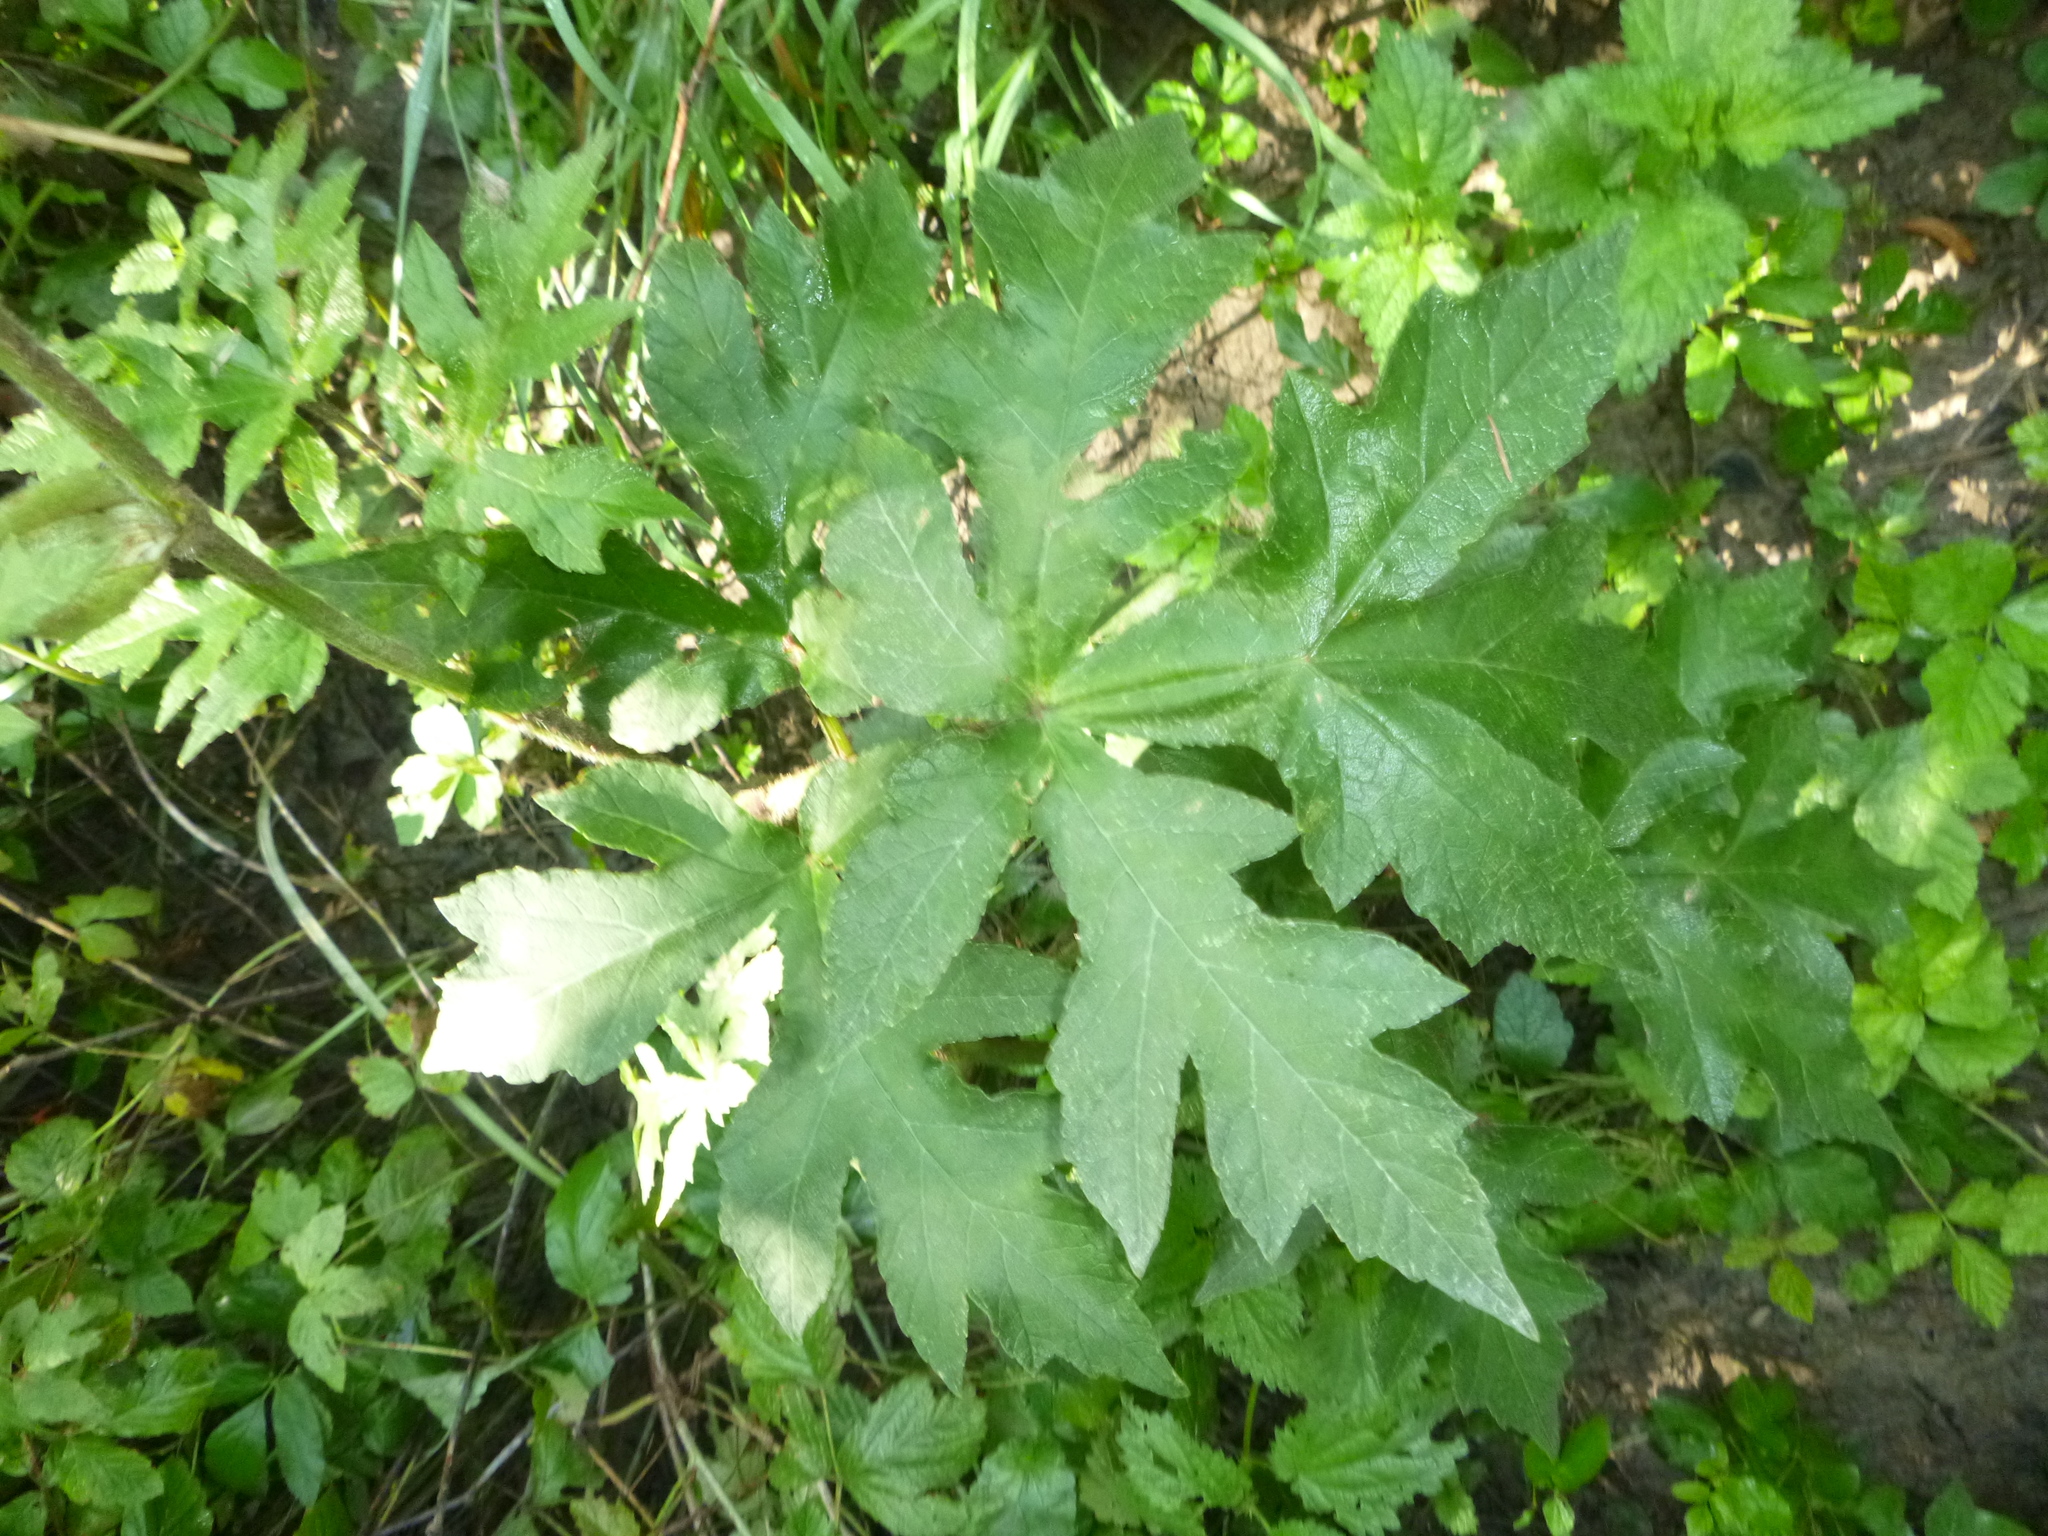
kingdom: Plantae
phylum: Tracheophyta
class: Magnoliopsida
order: Apiales
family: Apiaceae
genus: Heracleum
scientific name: Heracleum sphondylium
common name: Hogweed
